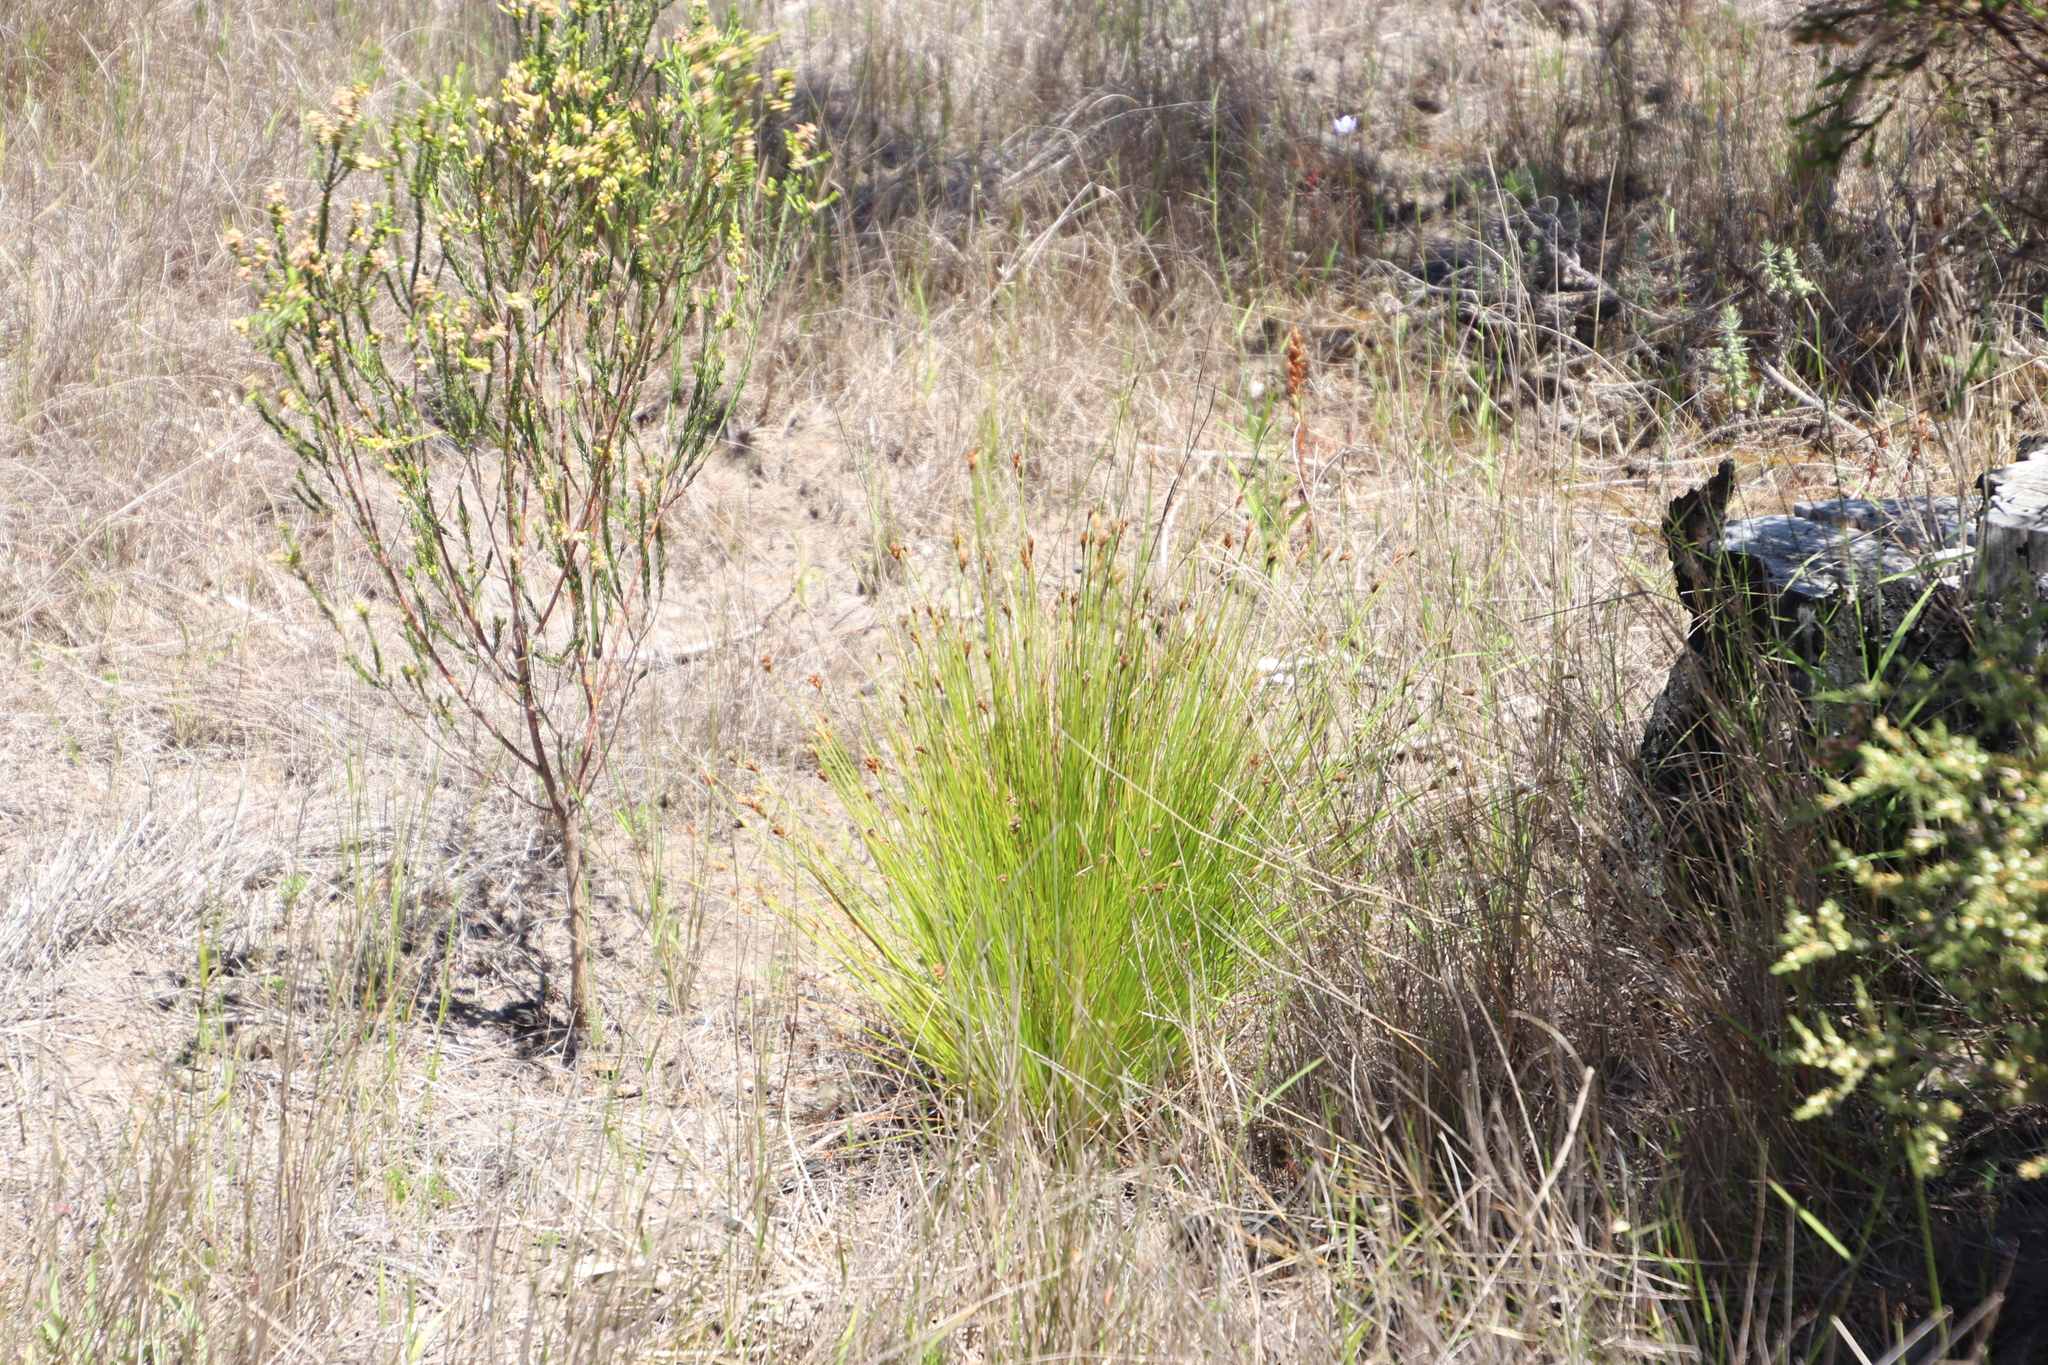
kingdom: Plantae
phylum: Tracheophyta
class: Liliopsida
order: Poales
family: Cyperaceae
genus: Ficinia
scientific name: Ficinia fastigiata
